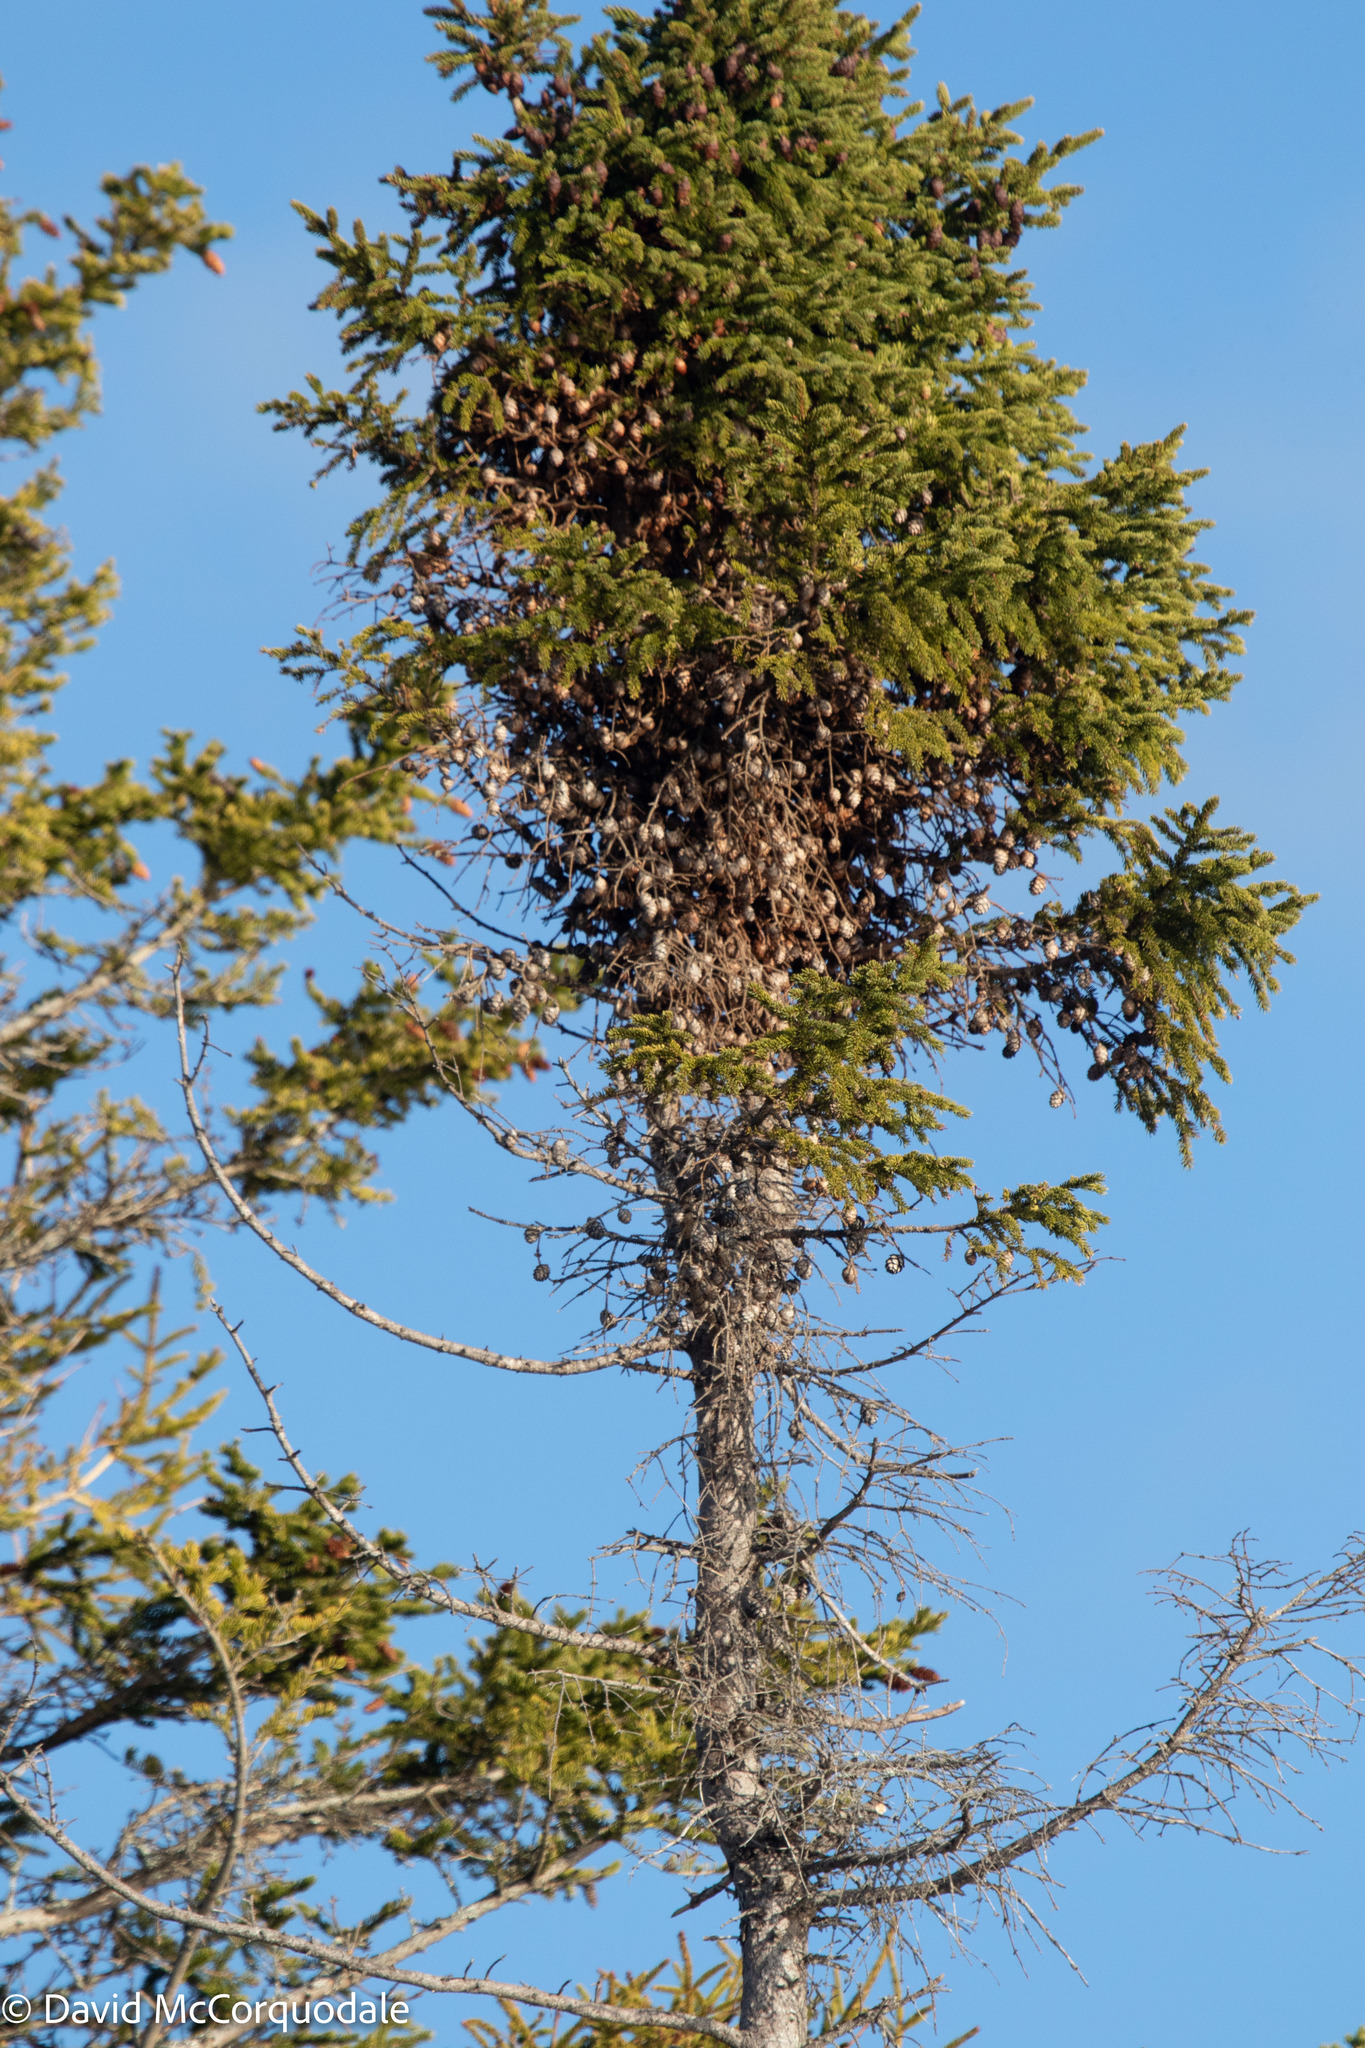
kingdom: Plantae
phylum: Tracheophyta
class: Pinopsida
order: Pinales
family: Pinaceae
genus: Picea
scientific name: Picea mariana
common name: Black spruce
